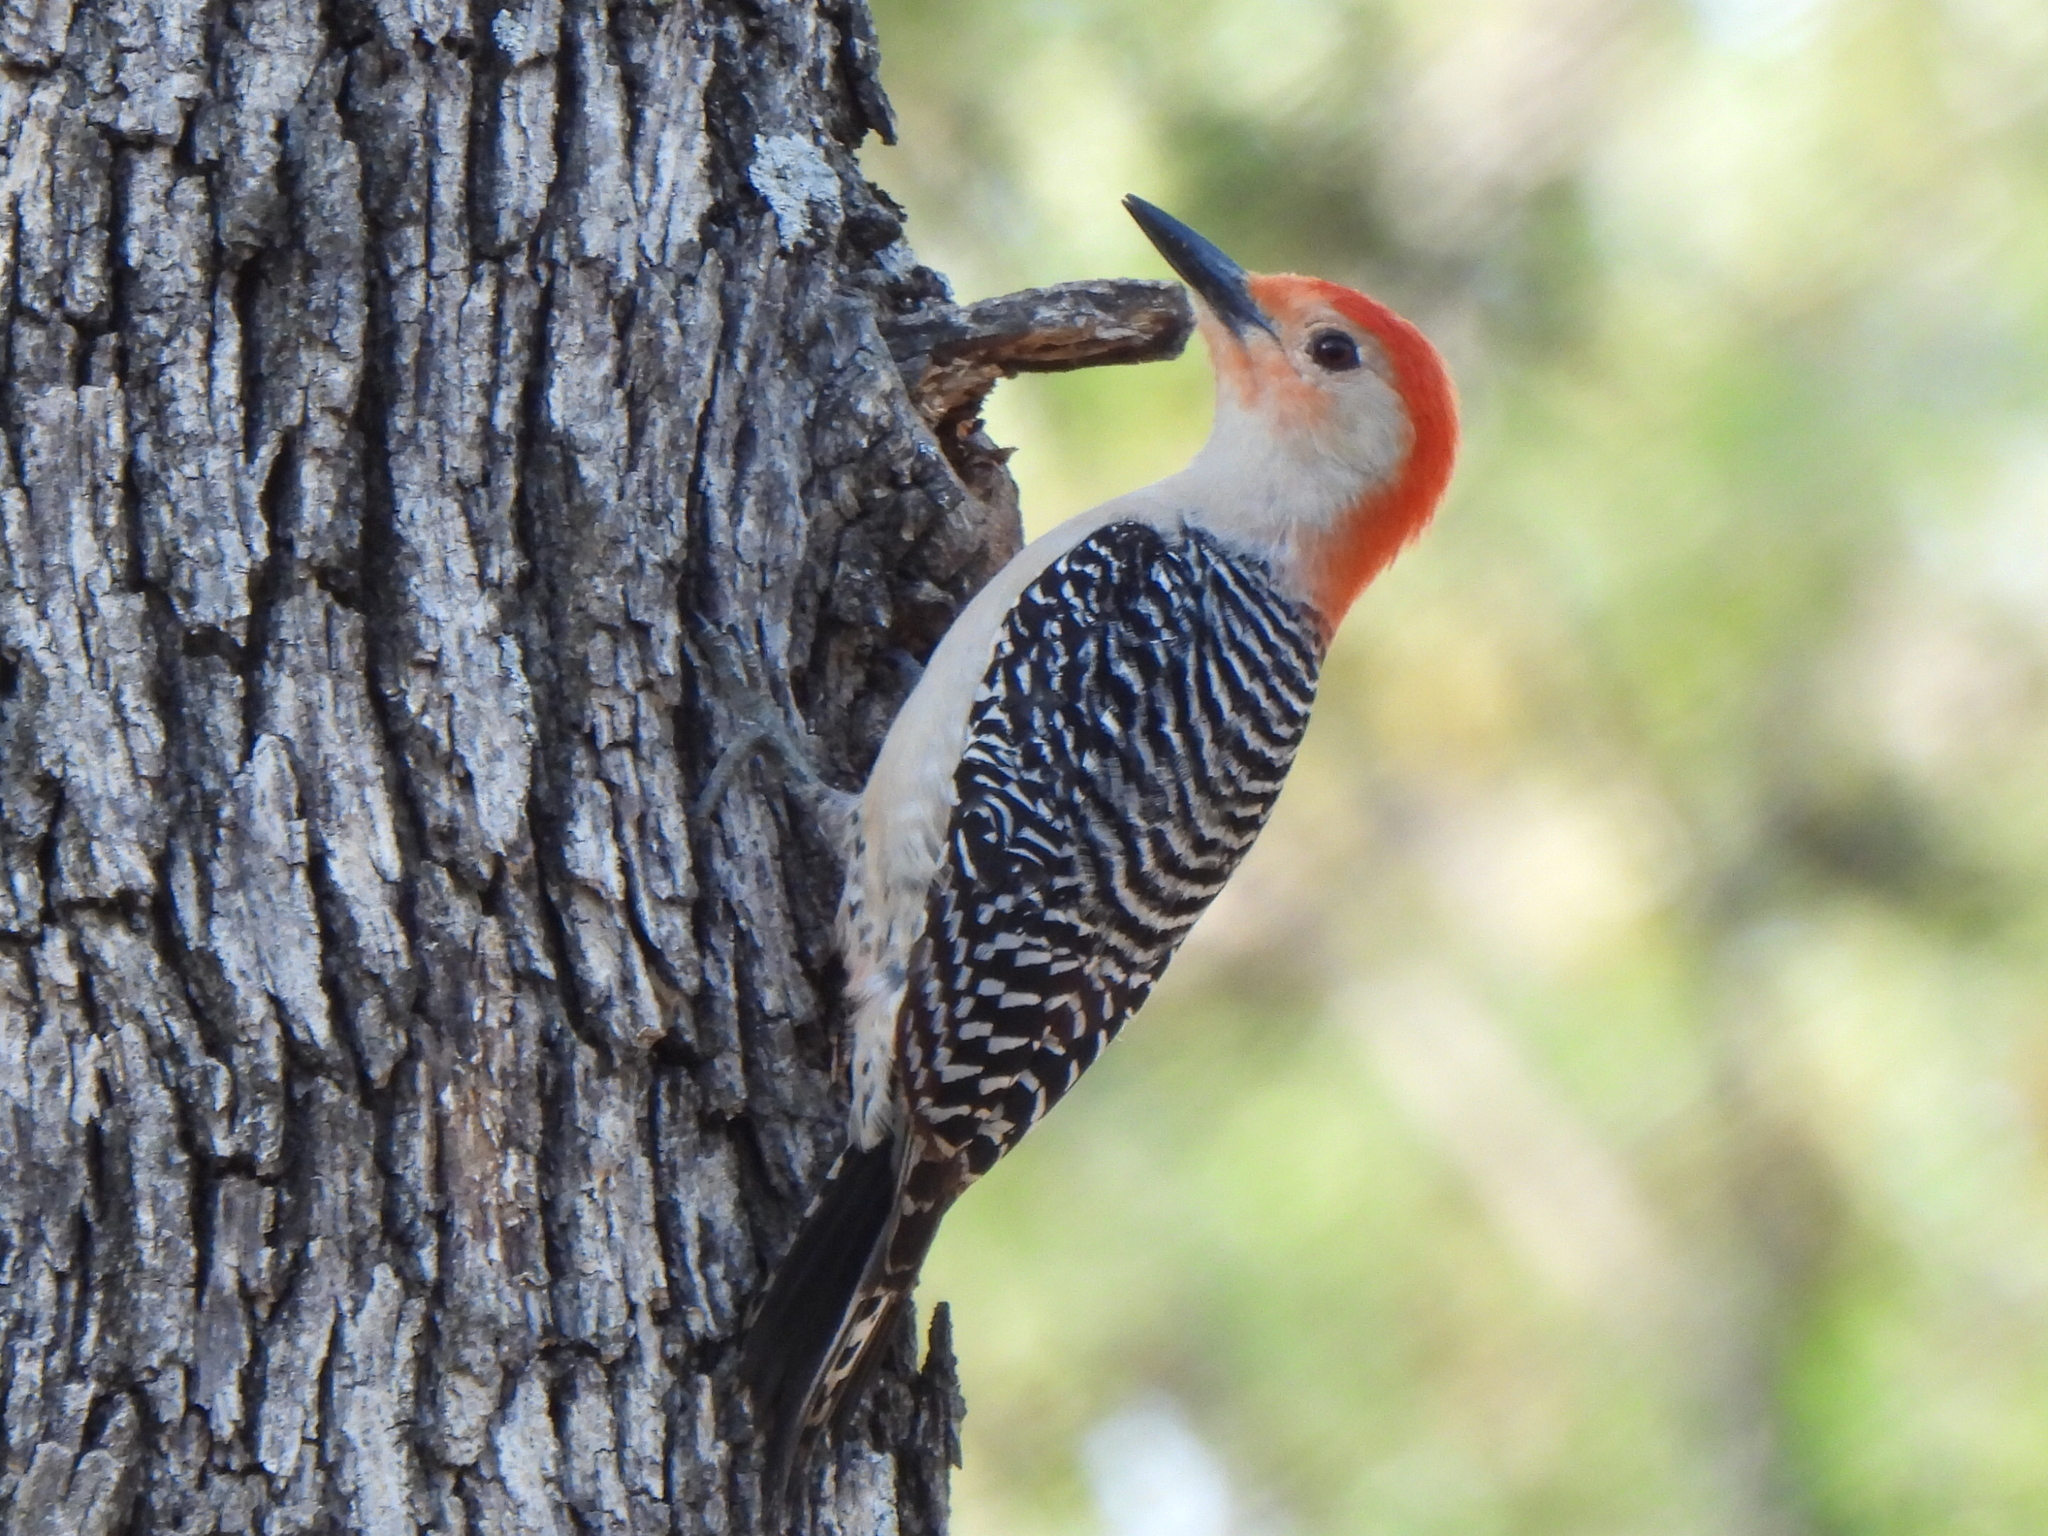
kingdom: Animalia
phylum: Chordata
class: Aves
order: Piciformes
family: Picidae
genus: Melanerpes
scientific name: Melanerpes carolinus
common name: Red-bellied woodpecker
